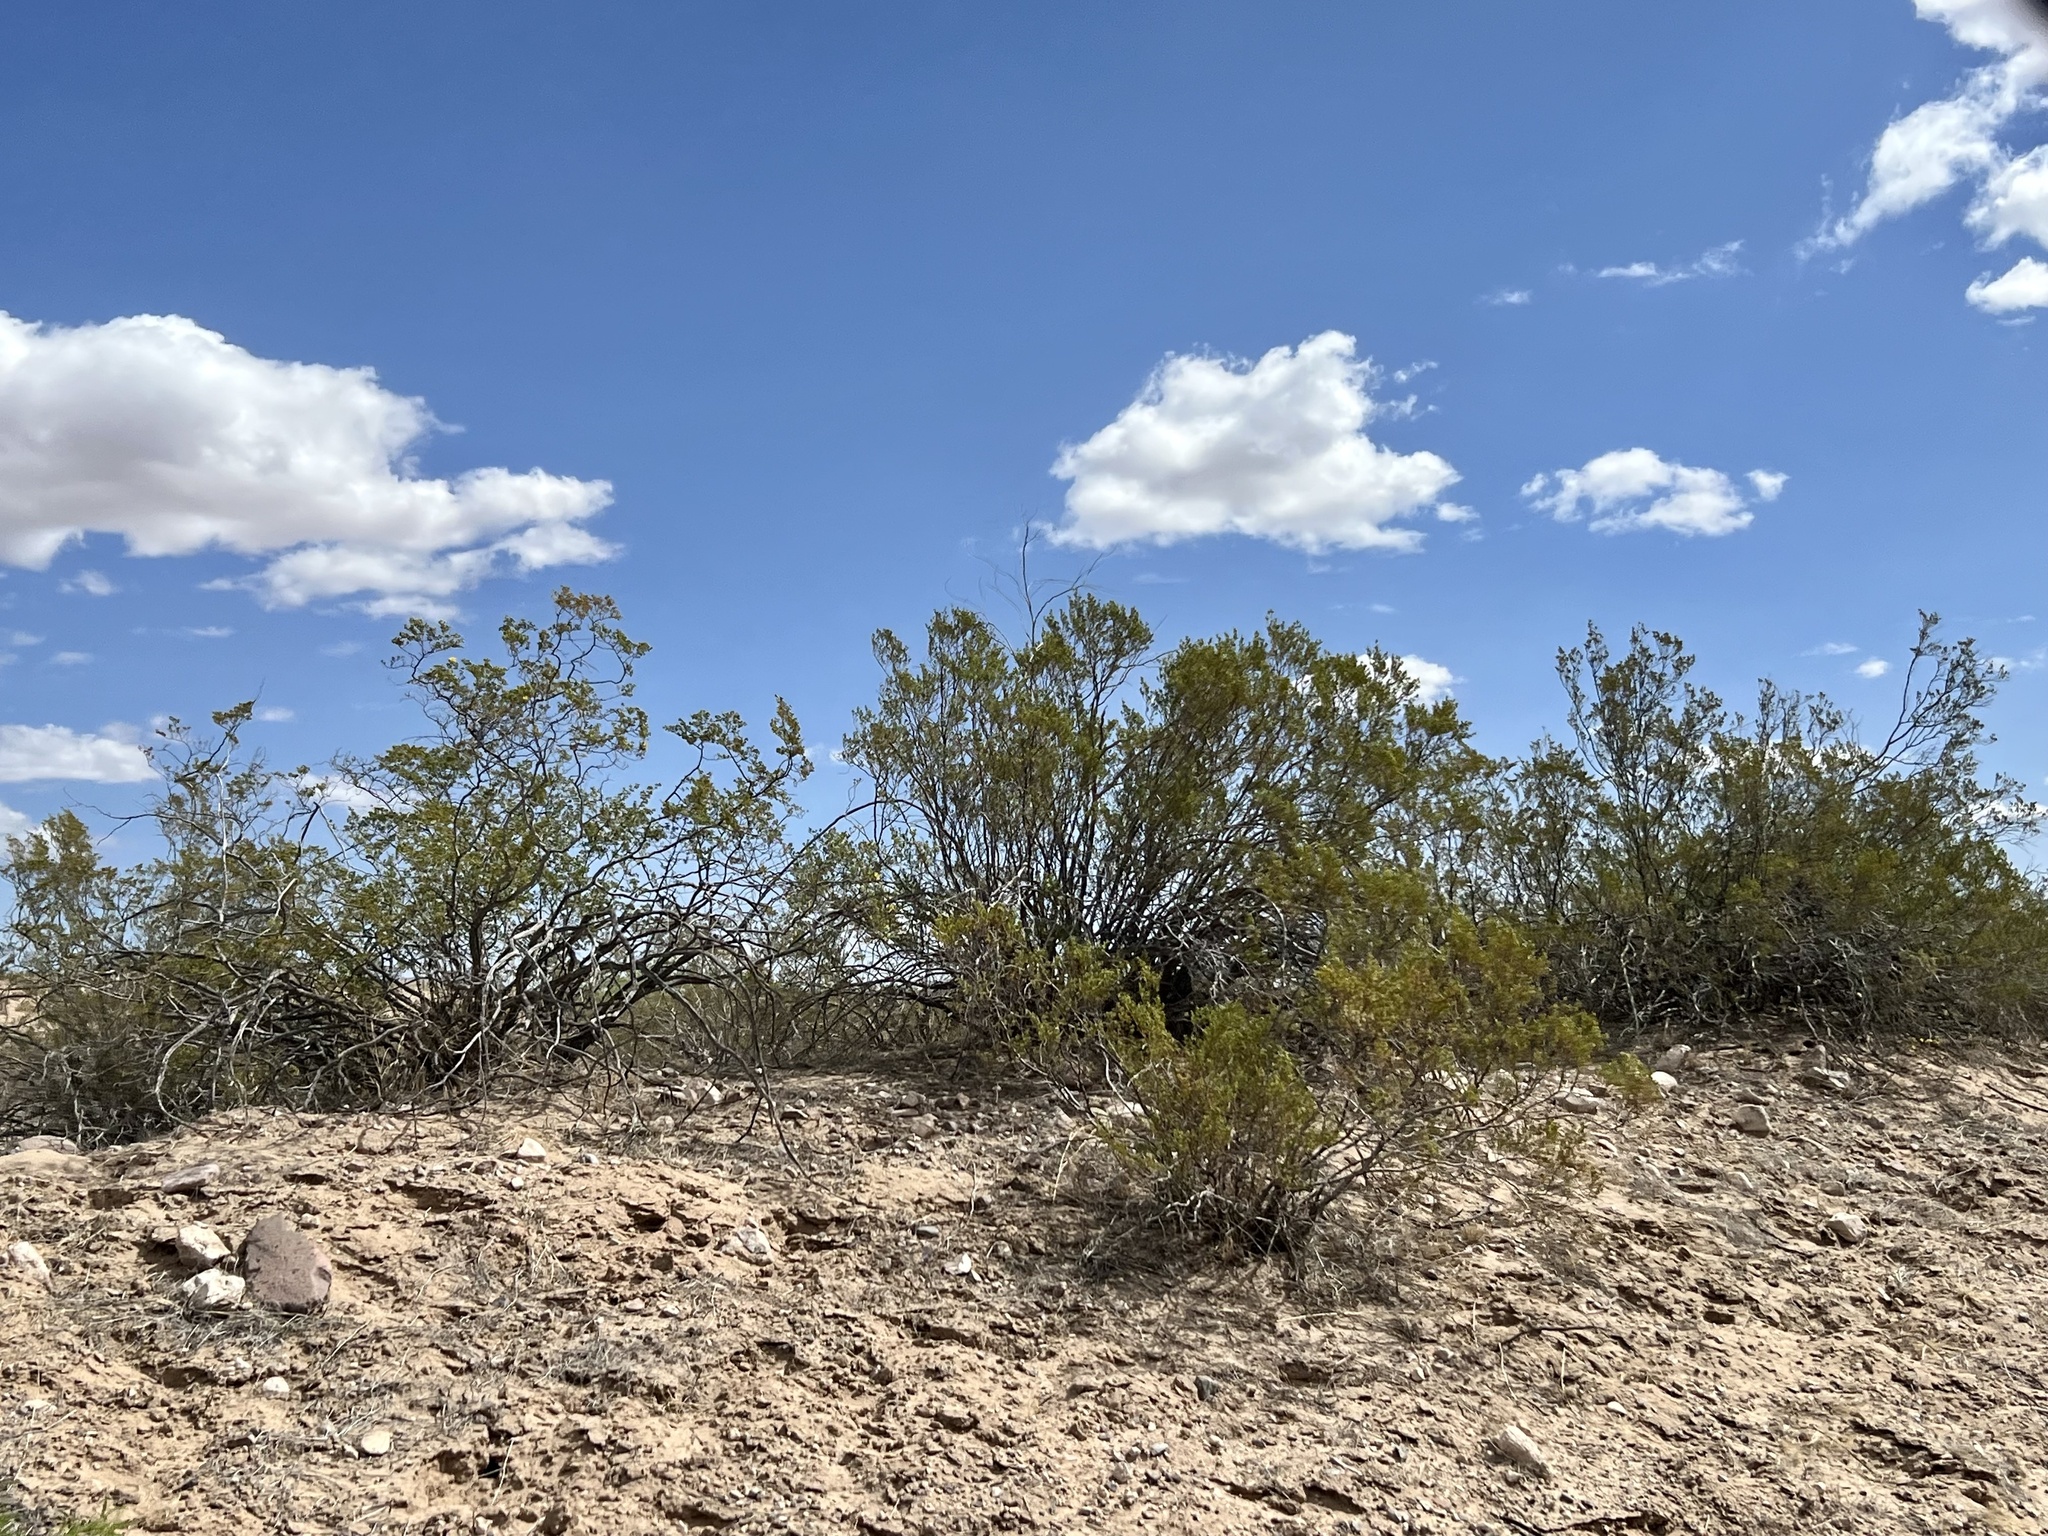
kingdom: Plantae
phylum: Tracheophyta
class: Magnoliopsida
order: Zygophyllales
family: Zygophyllaceae
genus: Larrea
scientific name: Larrea tridentata
